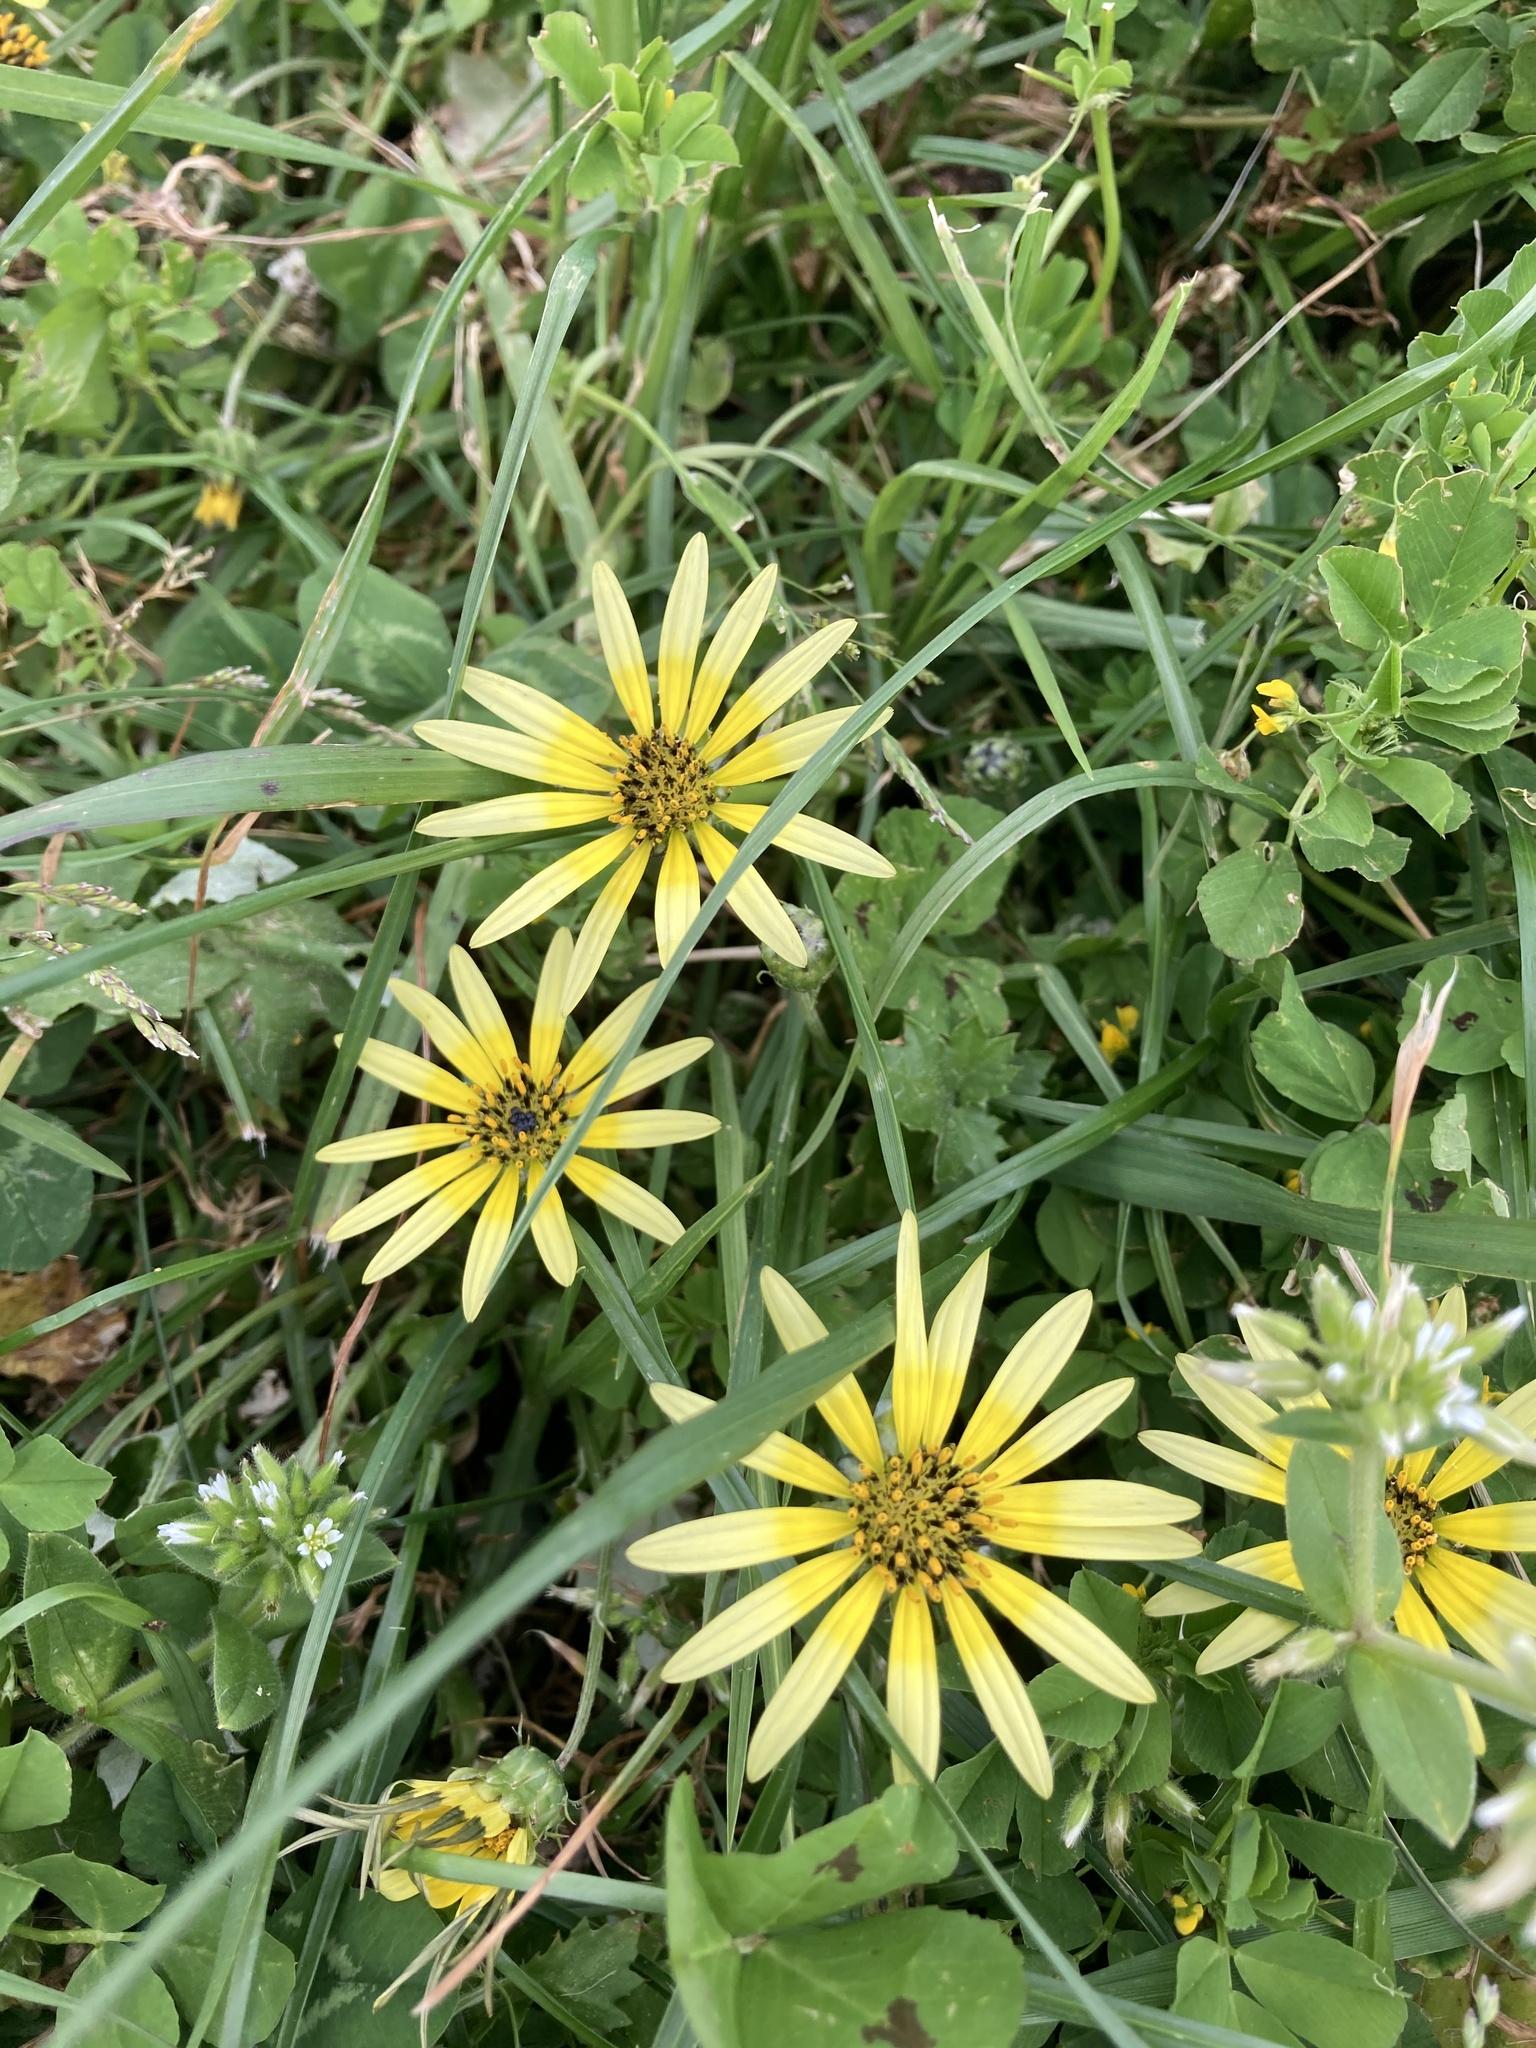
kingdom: Plantae
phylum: Tracheophyta
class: Magnoliopsida
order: Asterales
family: Asteraceae
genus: Arctotheca
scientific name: Arctotheca calendula
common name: Capeweed
